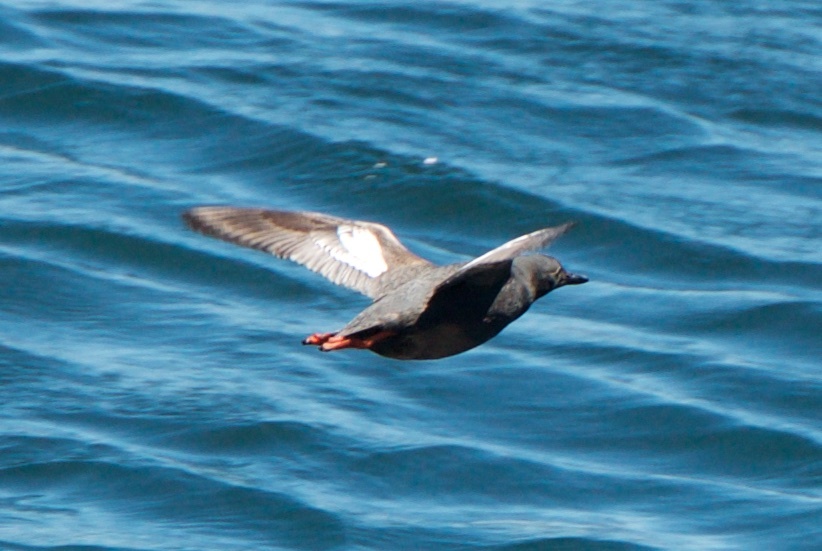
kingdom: Animalia
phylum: Chordata
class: Aves
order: Charadriiformes
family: Alcidae
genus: Cepphus
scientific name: Cepphus columba
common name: Pigeon guillemot
